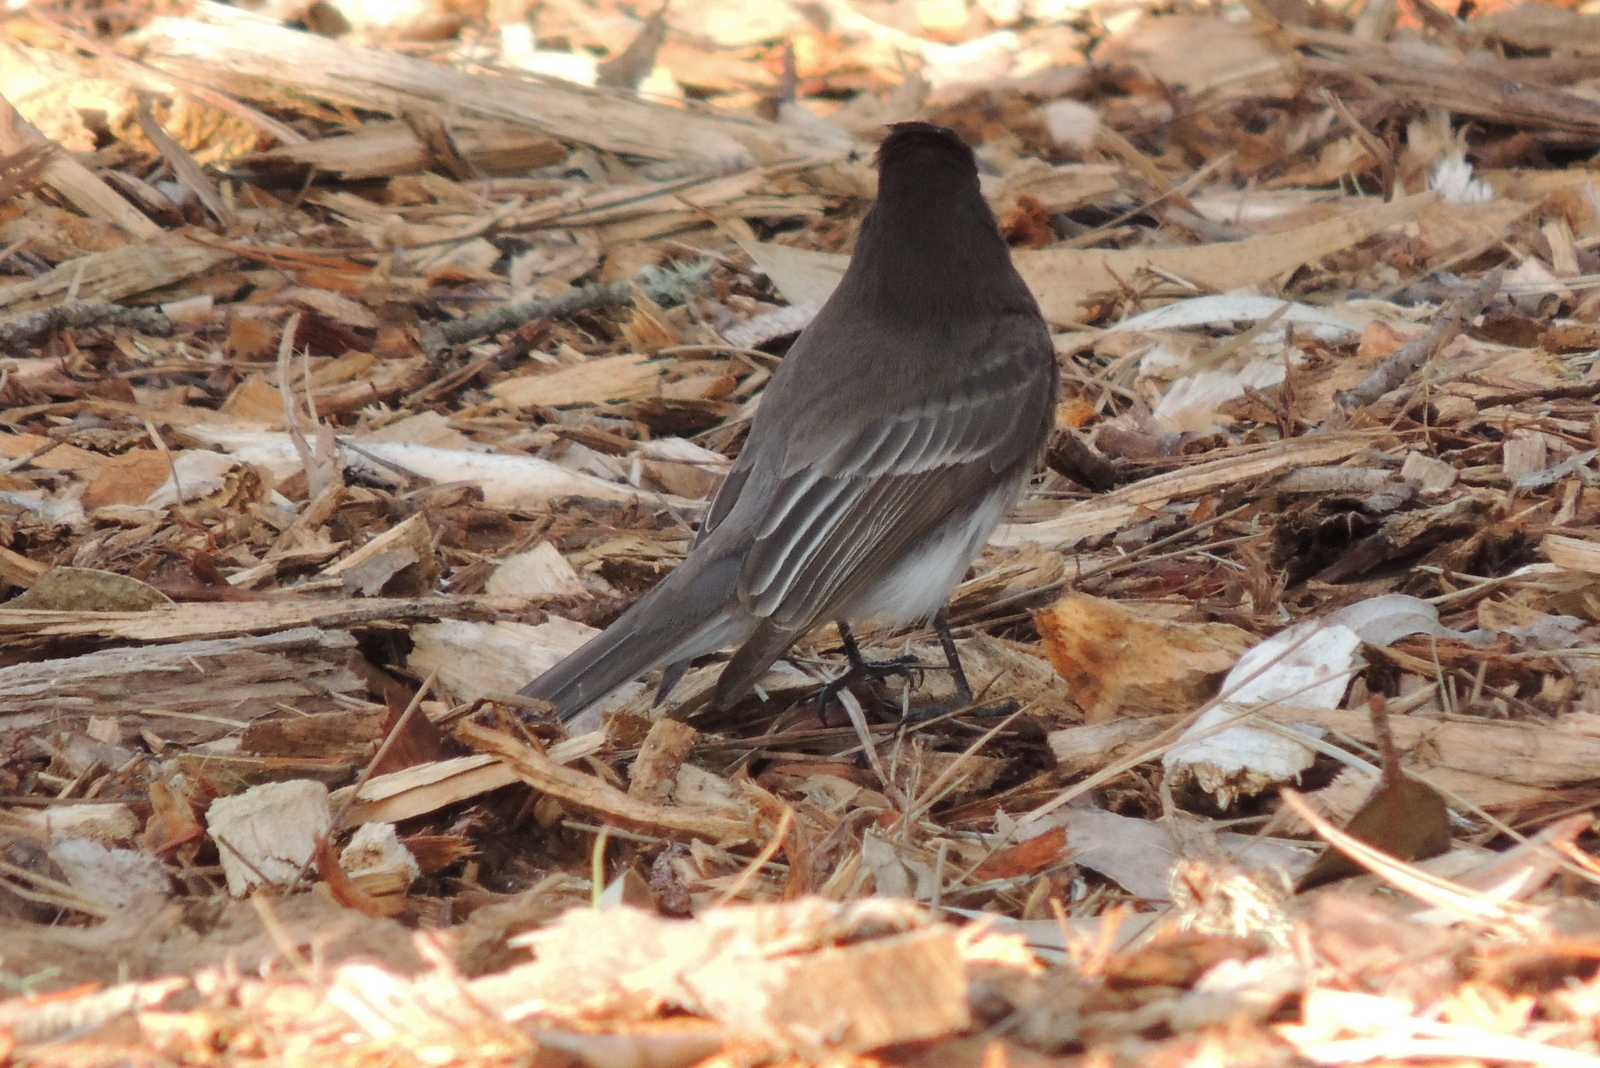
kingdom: Animalia
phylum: Chordata
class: Aves
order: Passeriformes
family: Tyrannidae
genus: Sayornis
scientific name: Sayornis nigricans
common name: Black phoebe
